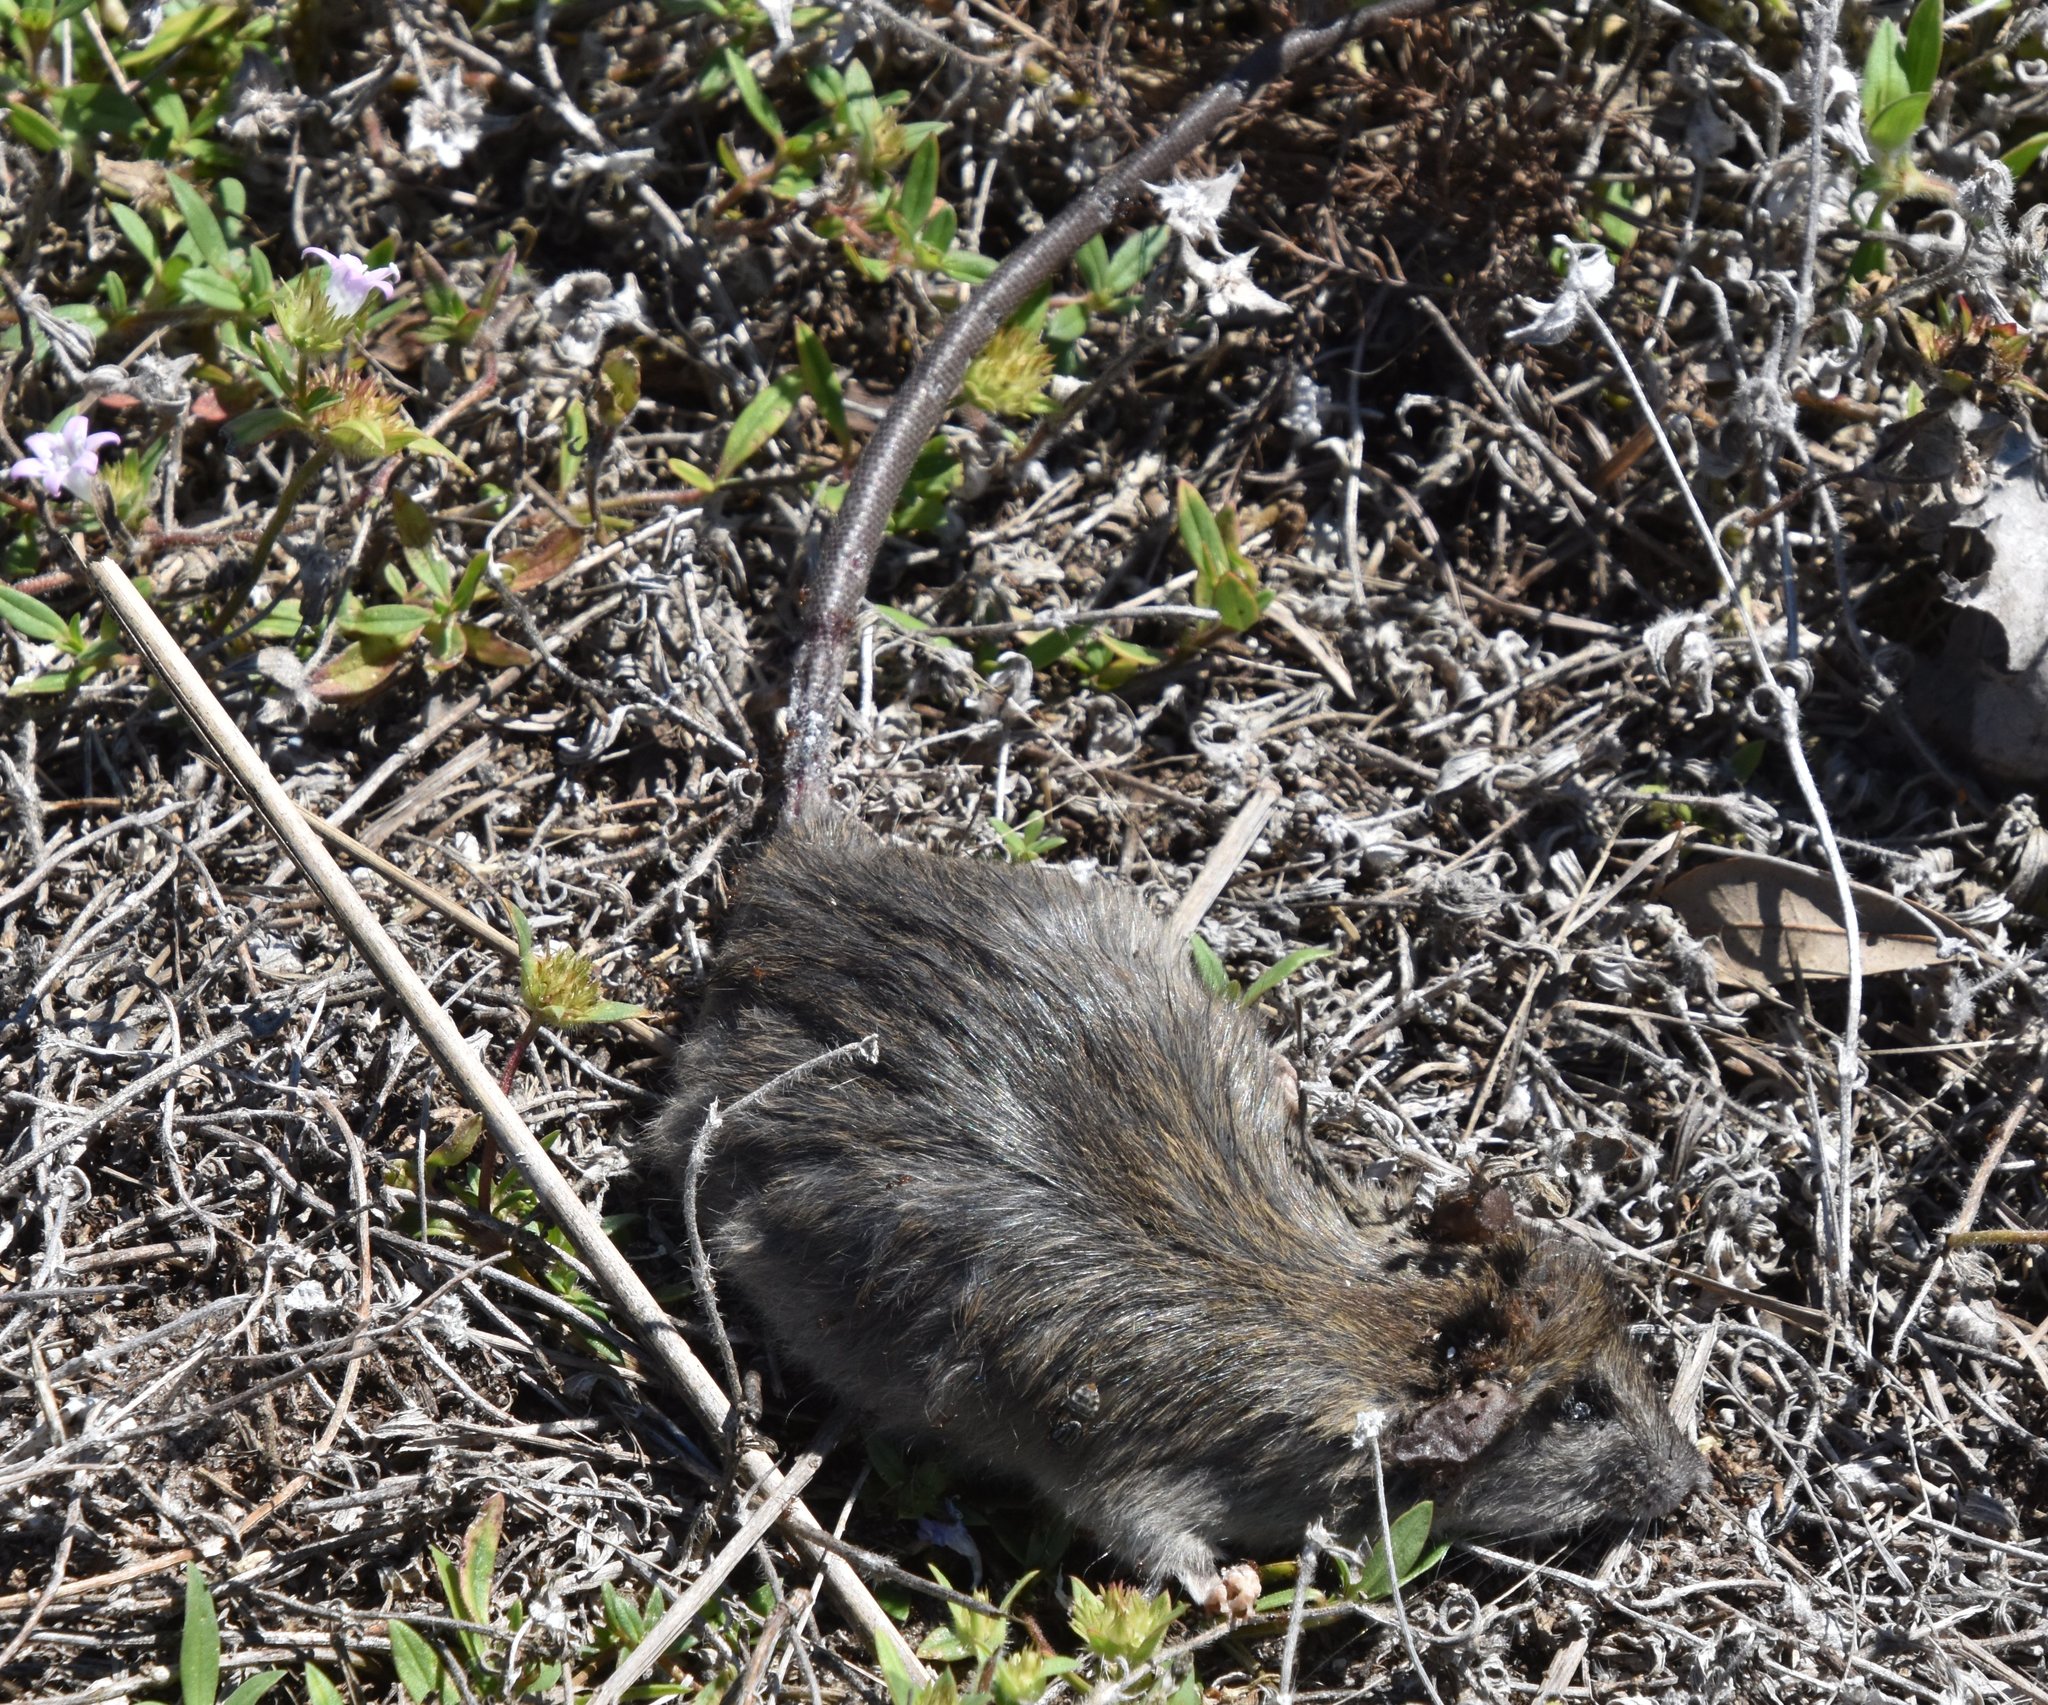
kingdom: Animalia
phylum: Chordata
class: Mammalia
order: Rodentia
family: Muridae
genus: Rattus
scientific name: Rattus rattus
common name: Black rat
